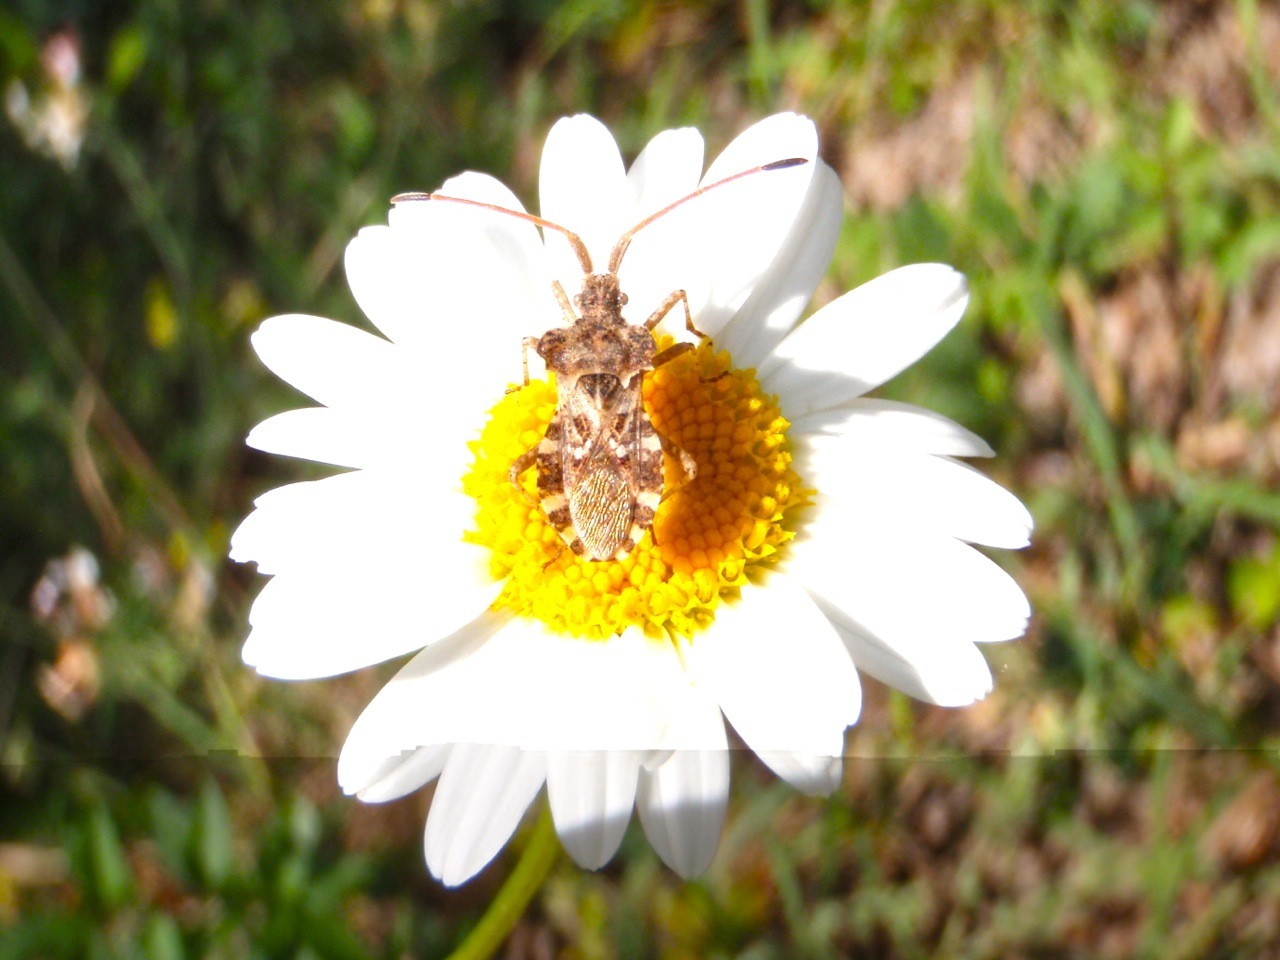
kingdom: Animalia
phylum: Arthropoda
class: Insecta
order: Hemiptera
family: Coreidae
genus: Centrocoris
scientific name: Centrocoris
